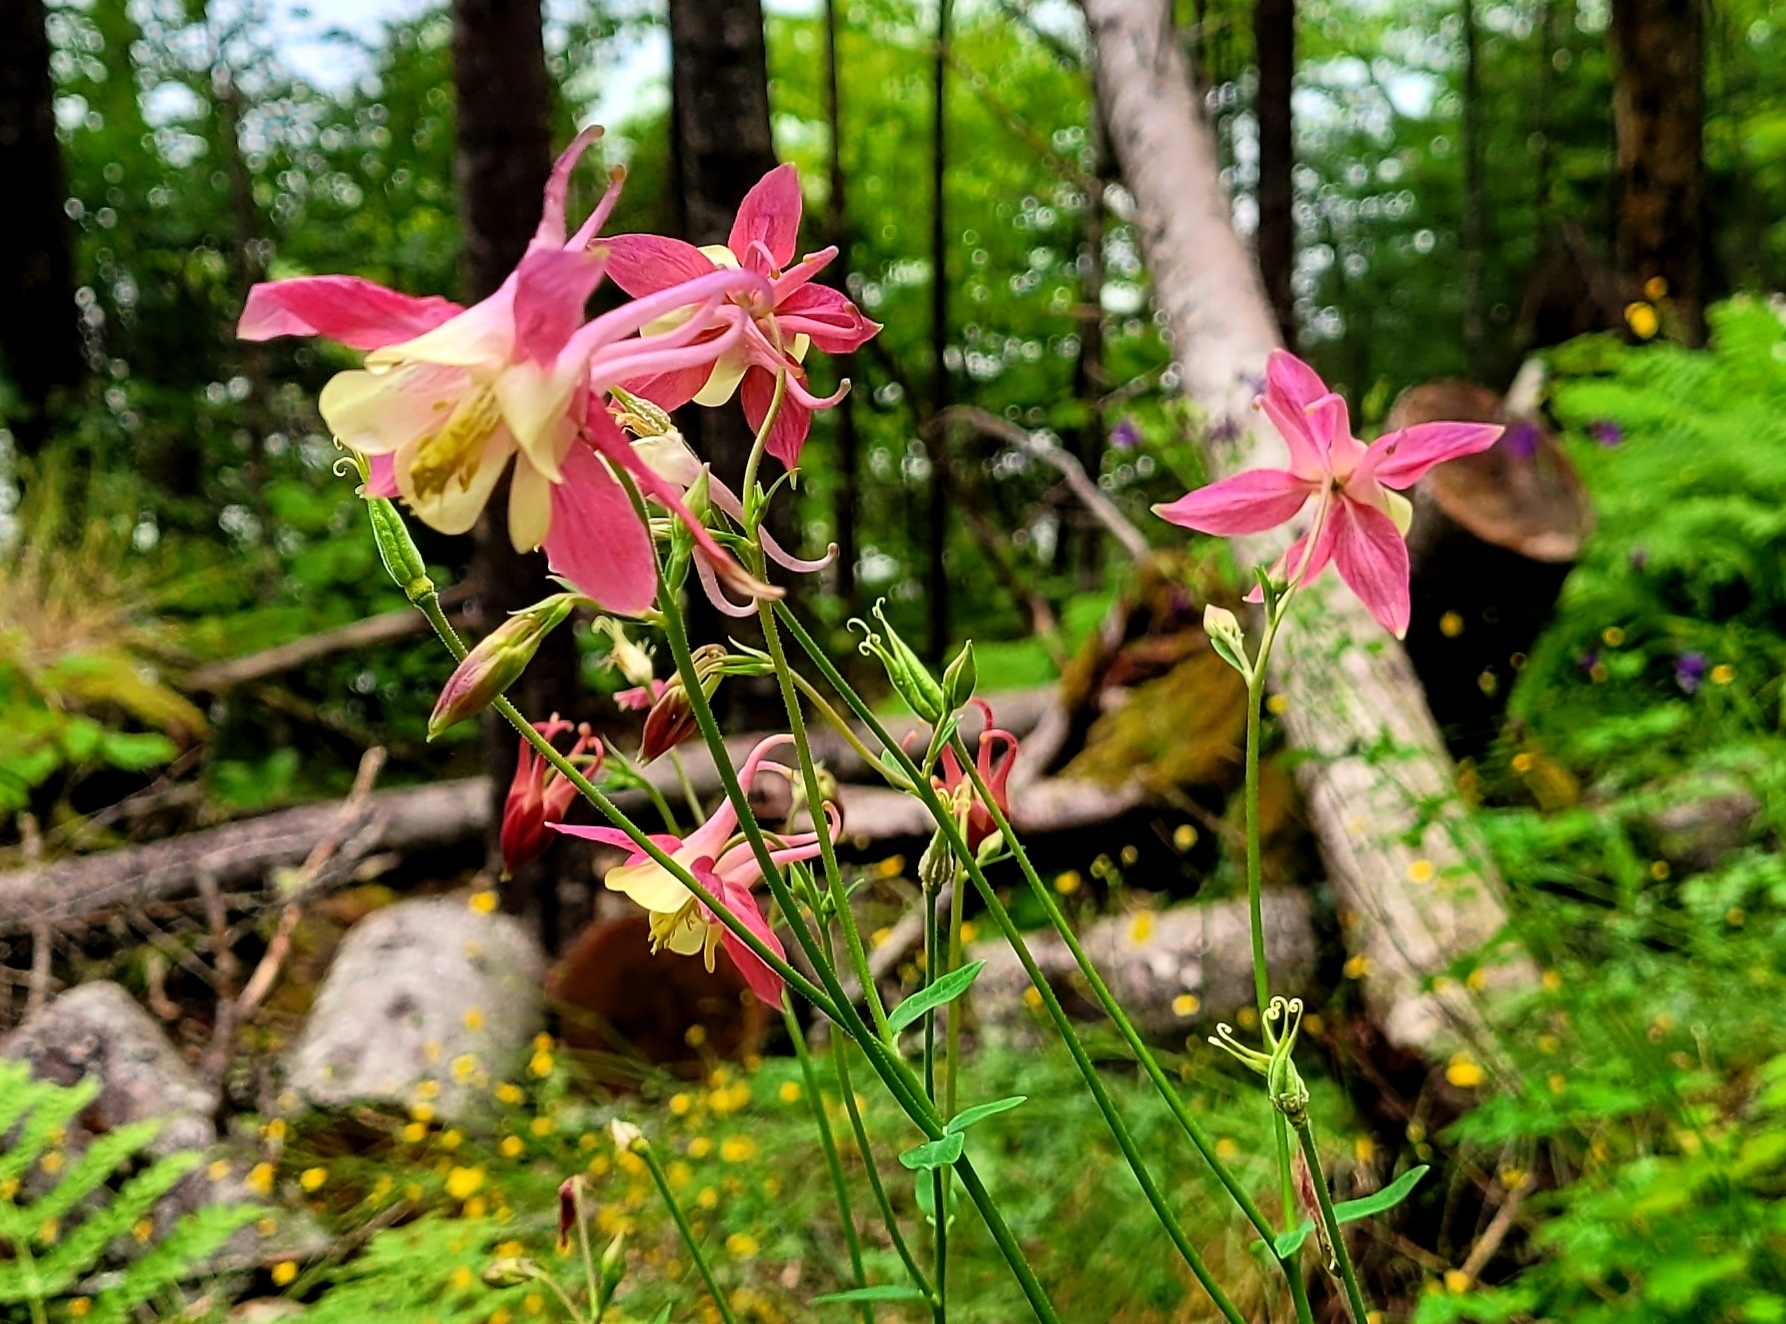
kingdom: Plantae
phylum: Tracheophyta
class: Magnoliopsida
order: Ranunculales
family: Ranunculaceae
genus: Aquilegia
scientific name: Aquilegia vulgaris
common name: Columbine
